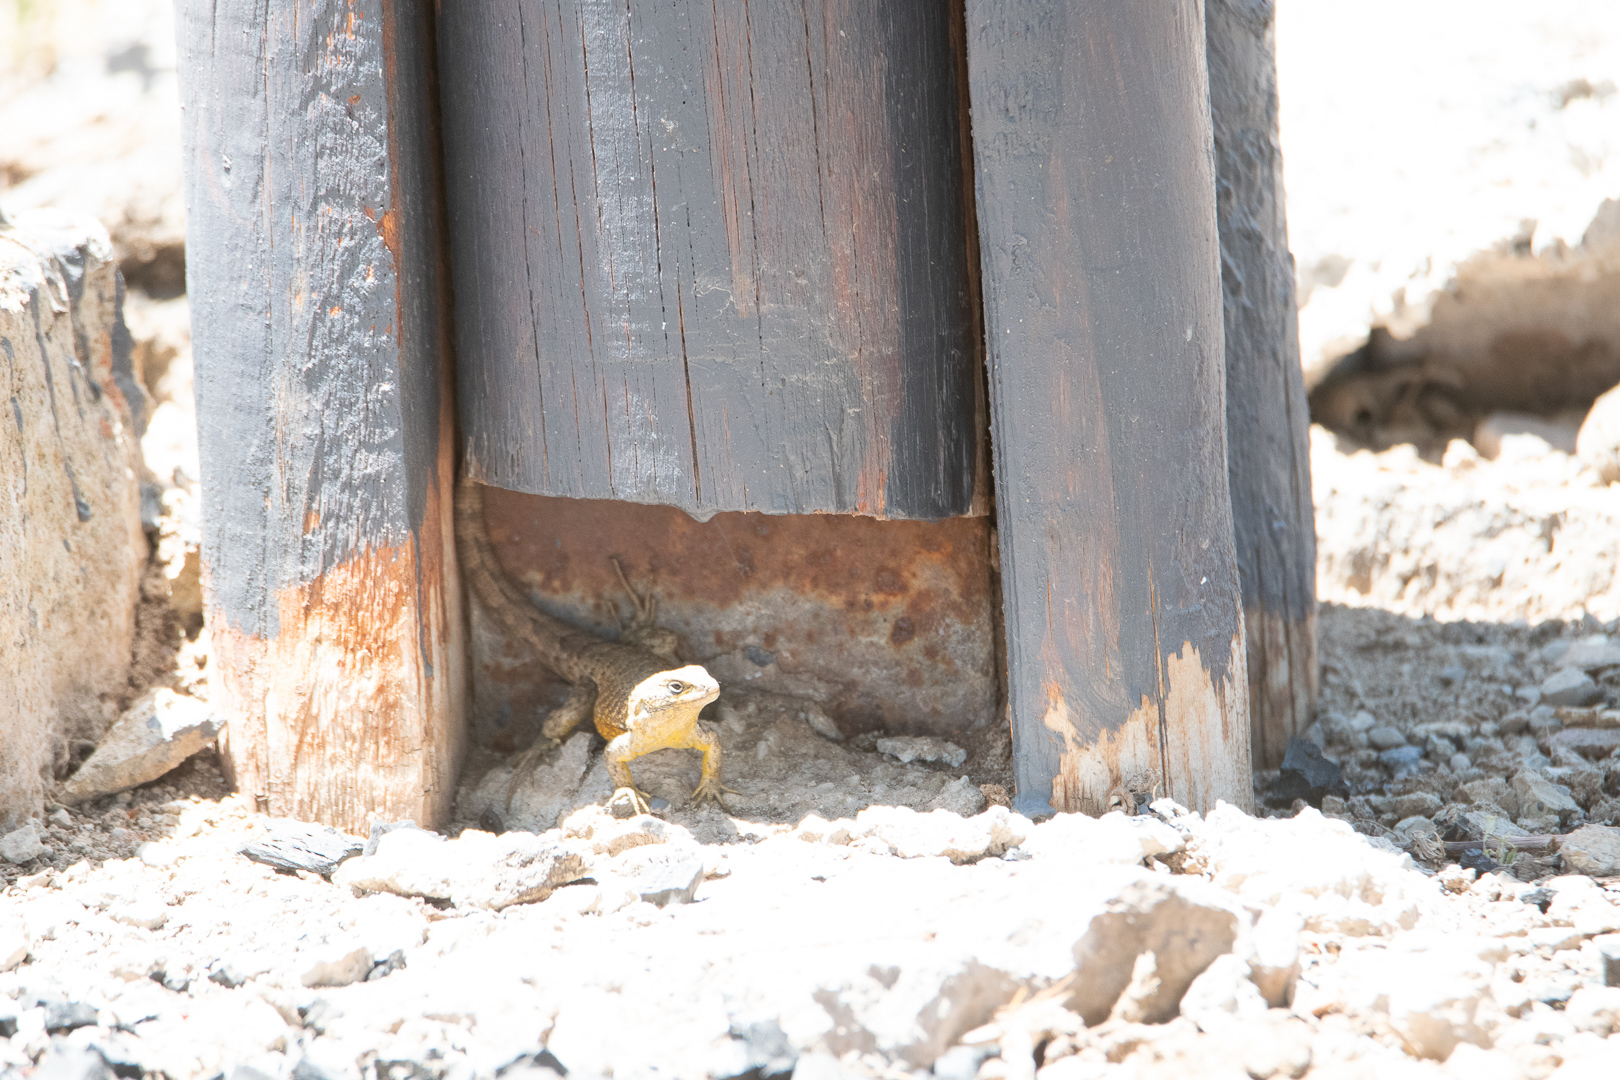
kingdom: Animalia
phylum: Chordata
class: Squamata
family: Liolaemidae
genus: Liolaemus
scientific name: Liolaemus bellii
